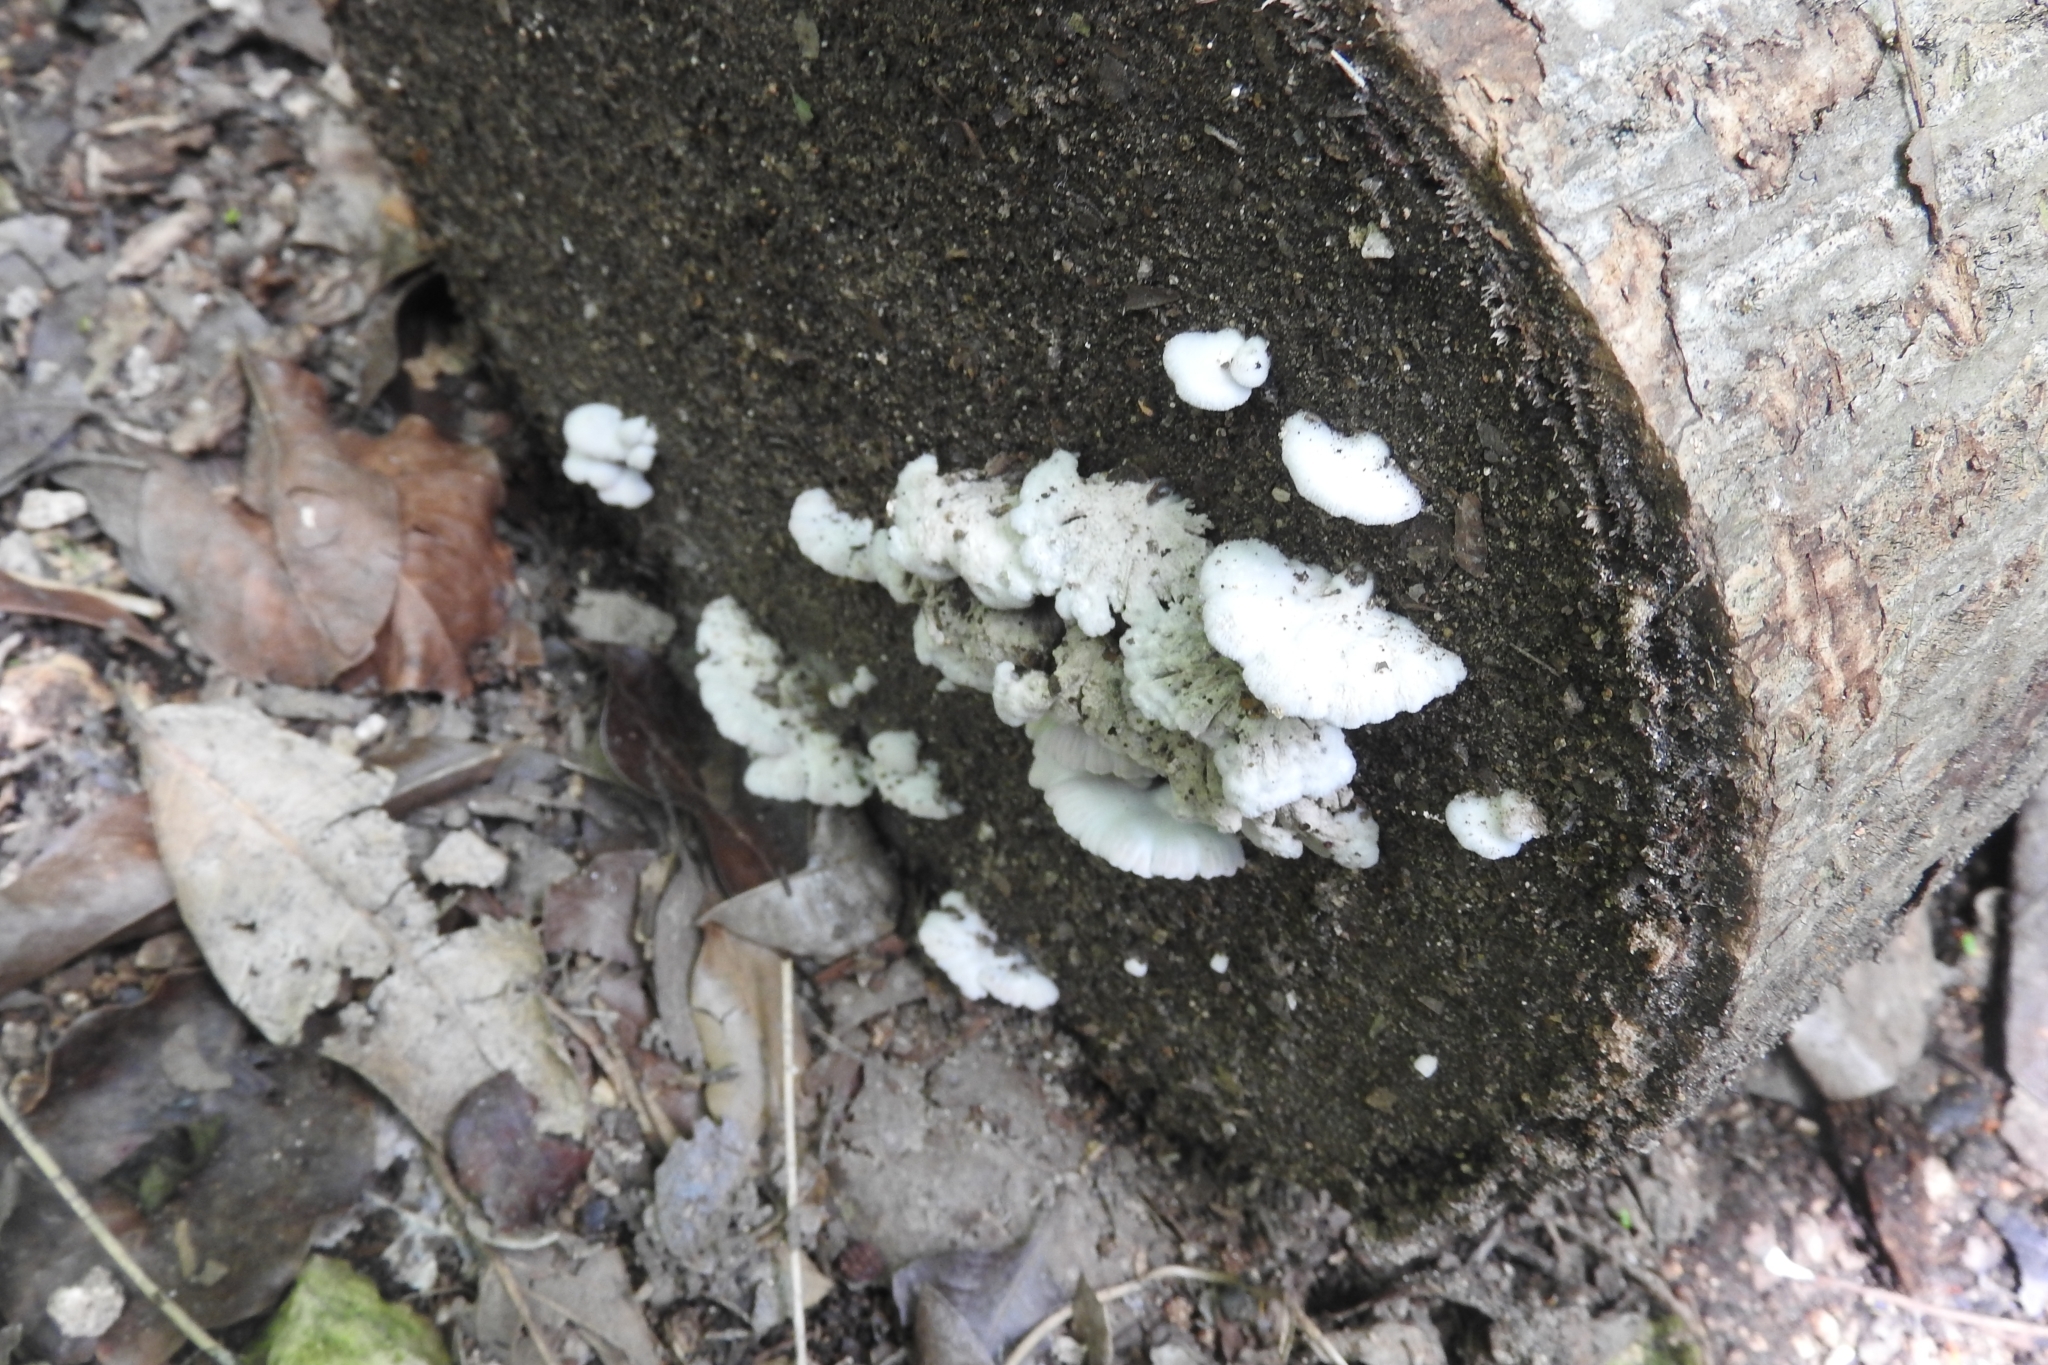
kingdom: Fungi
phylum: Basidiomycota
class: Agaricomycetes
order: Agaricales
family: Schizophyllaceae
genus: Schizophyllum
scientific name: Schizophyllum commune
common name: Common porecrust
